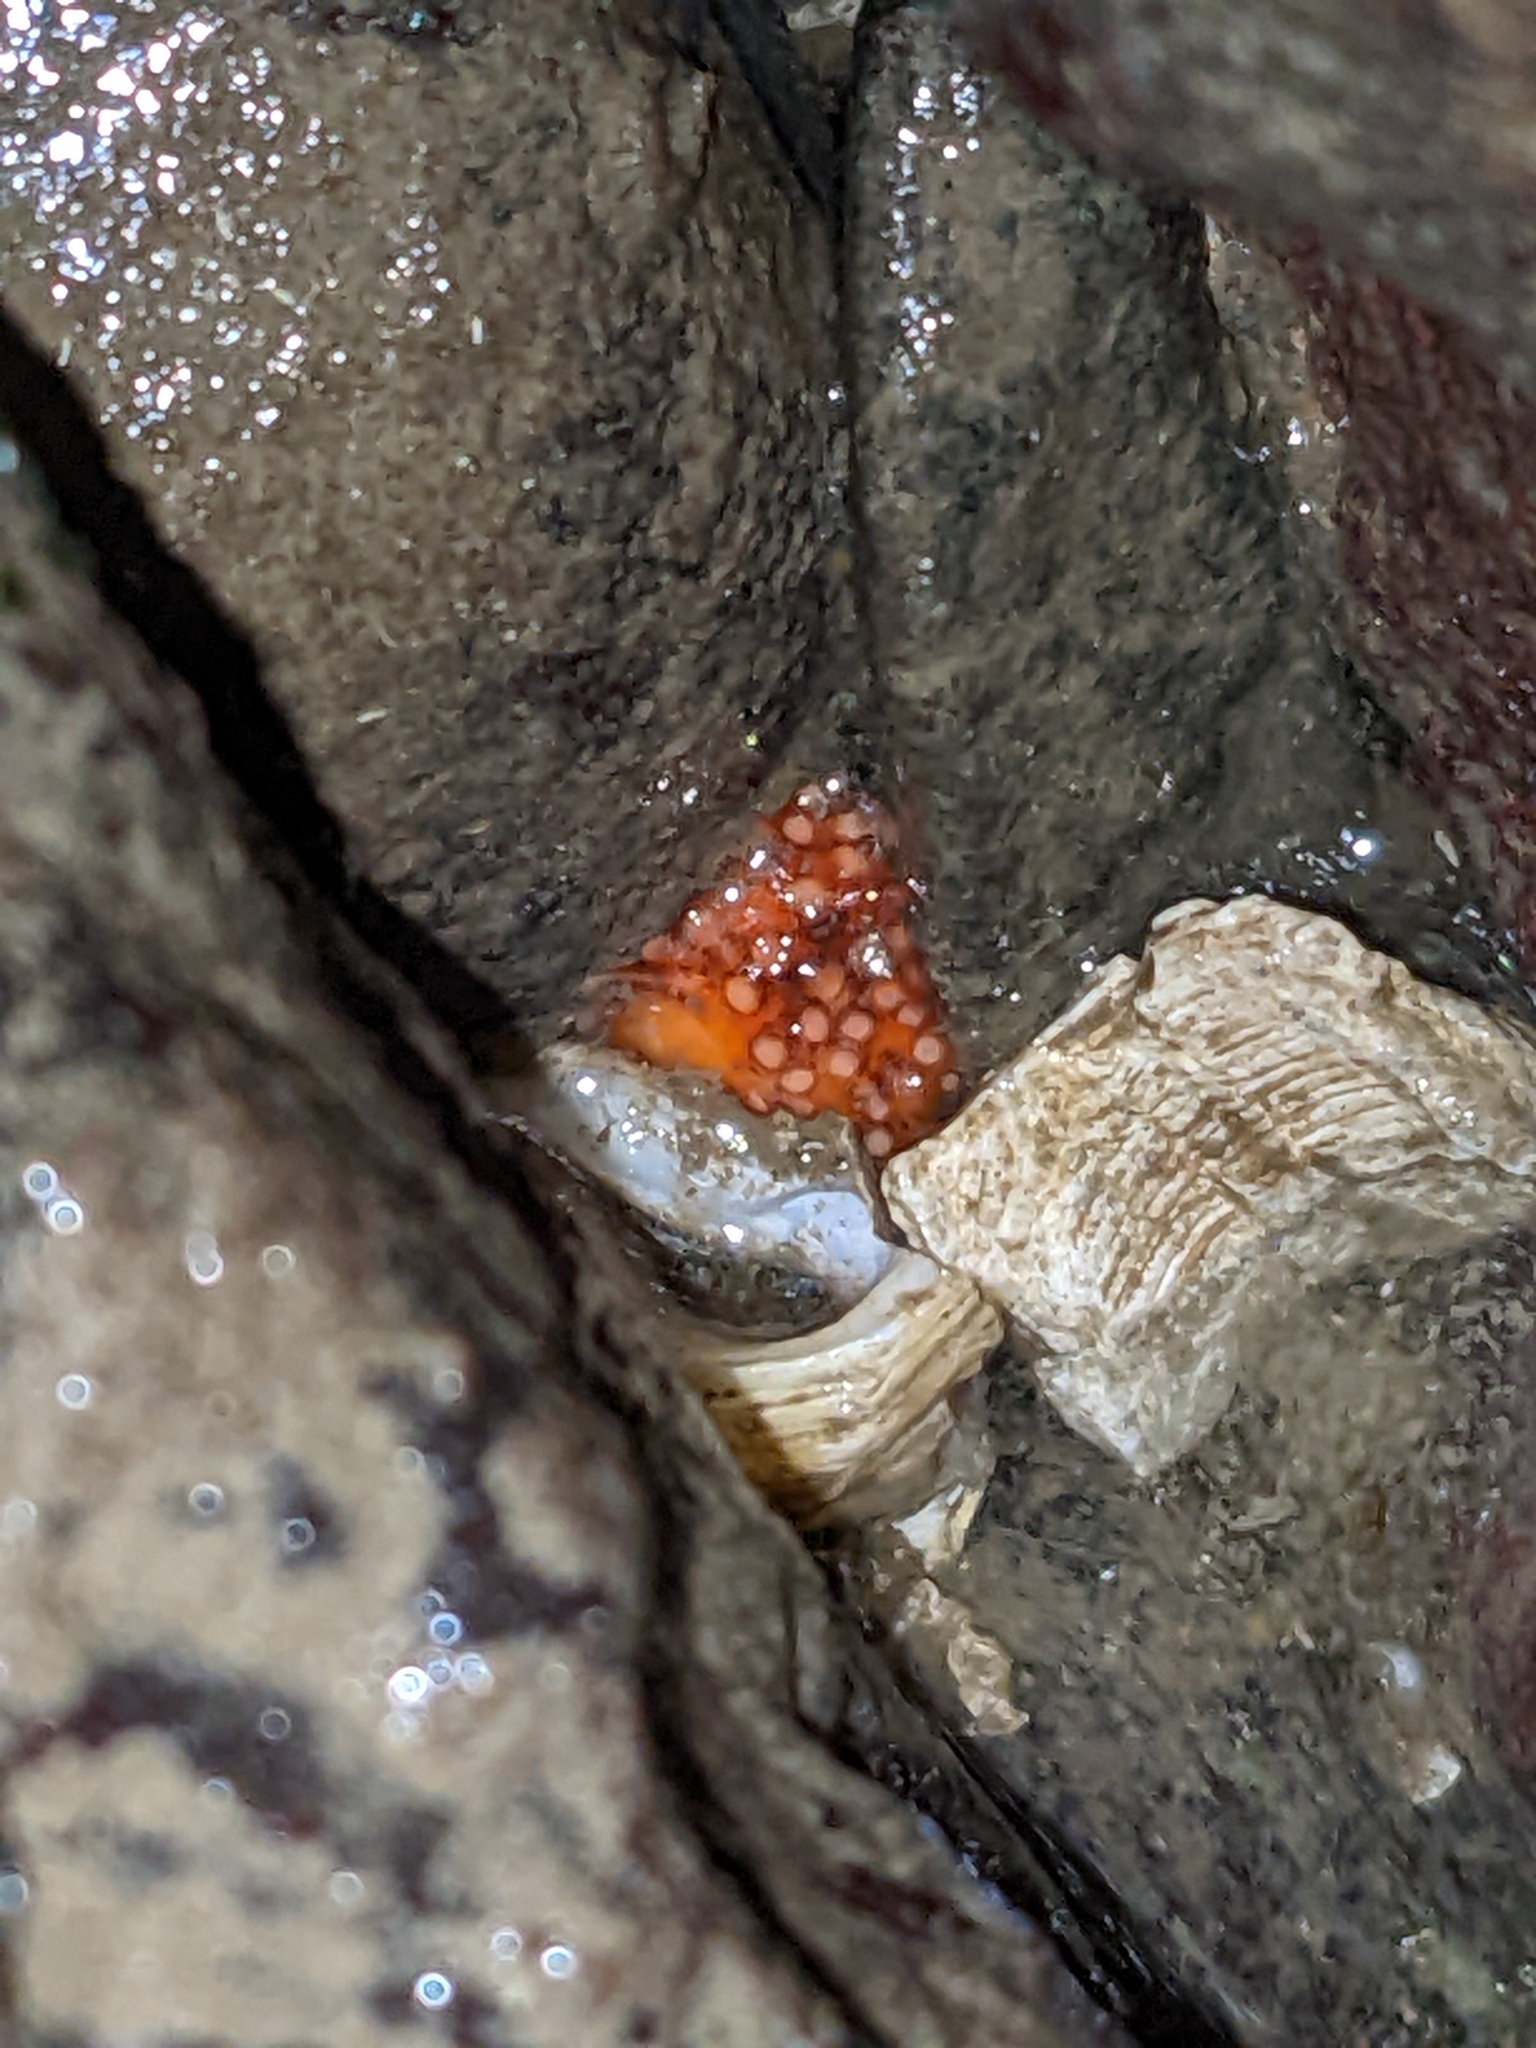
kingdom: Animalia
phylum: Echinodermata
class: Holothuroidea
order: Dendrochirotida
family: Cucumariidae
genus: Cucumaria
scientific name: Cucumaria miniata
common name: Orange sea cucumber
